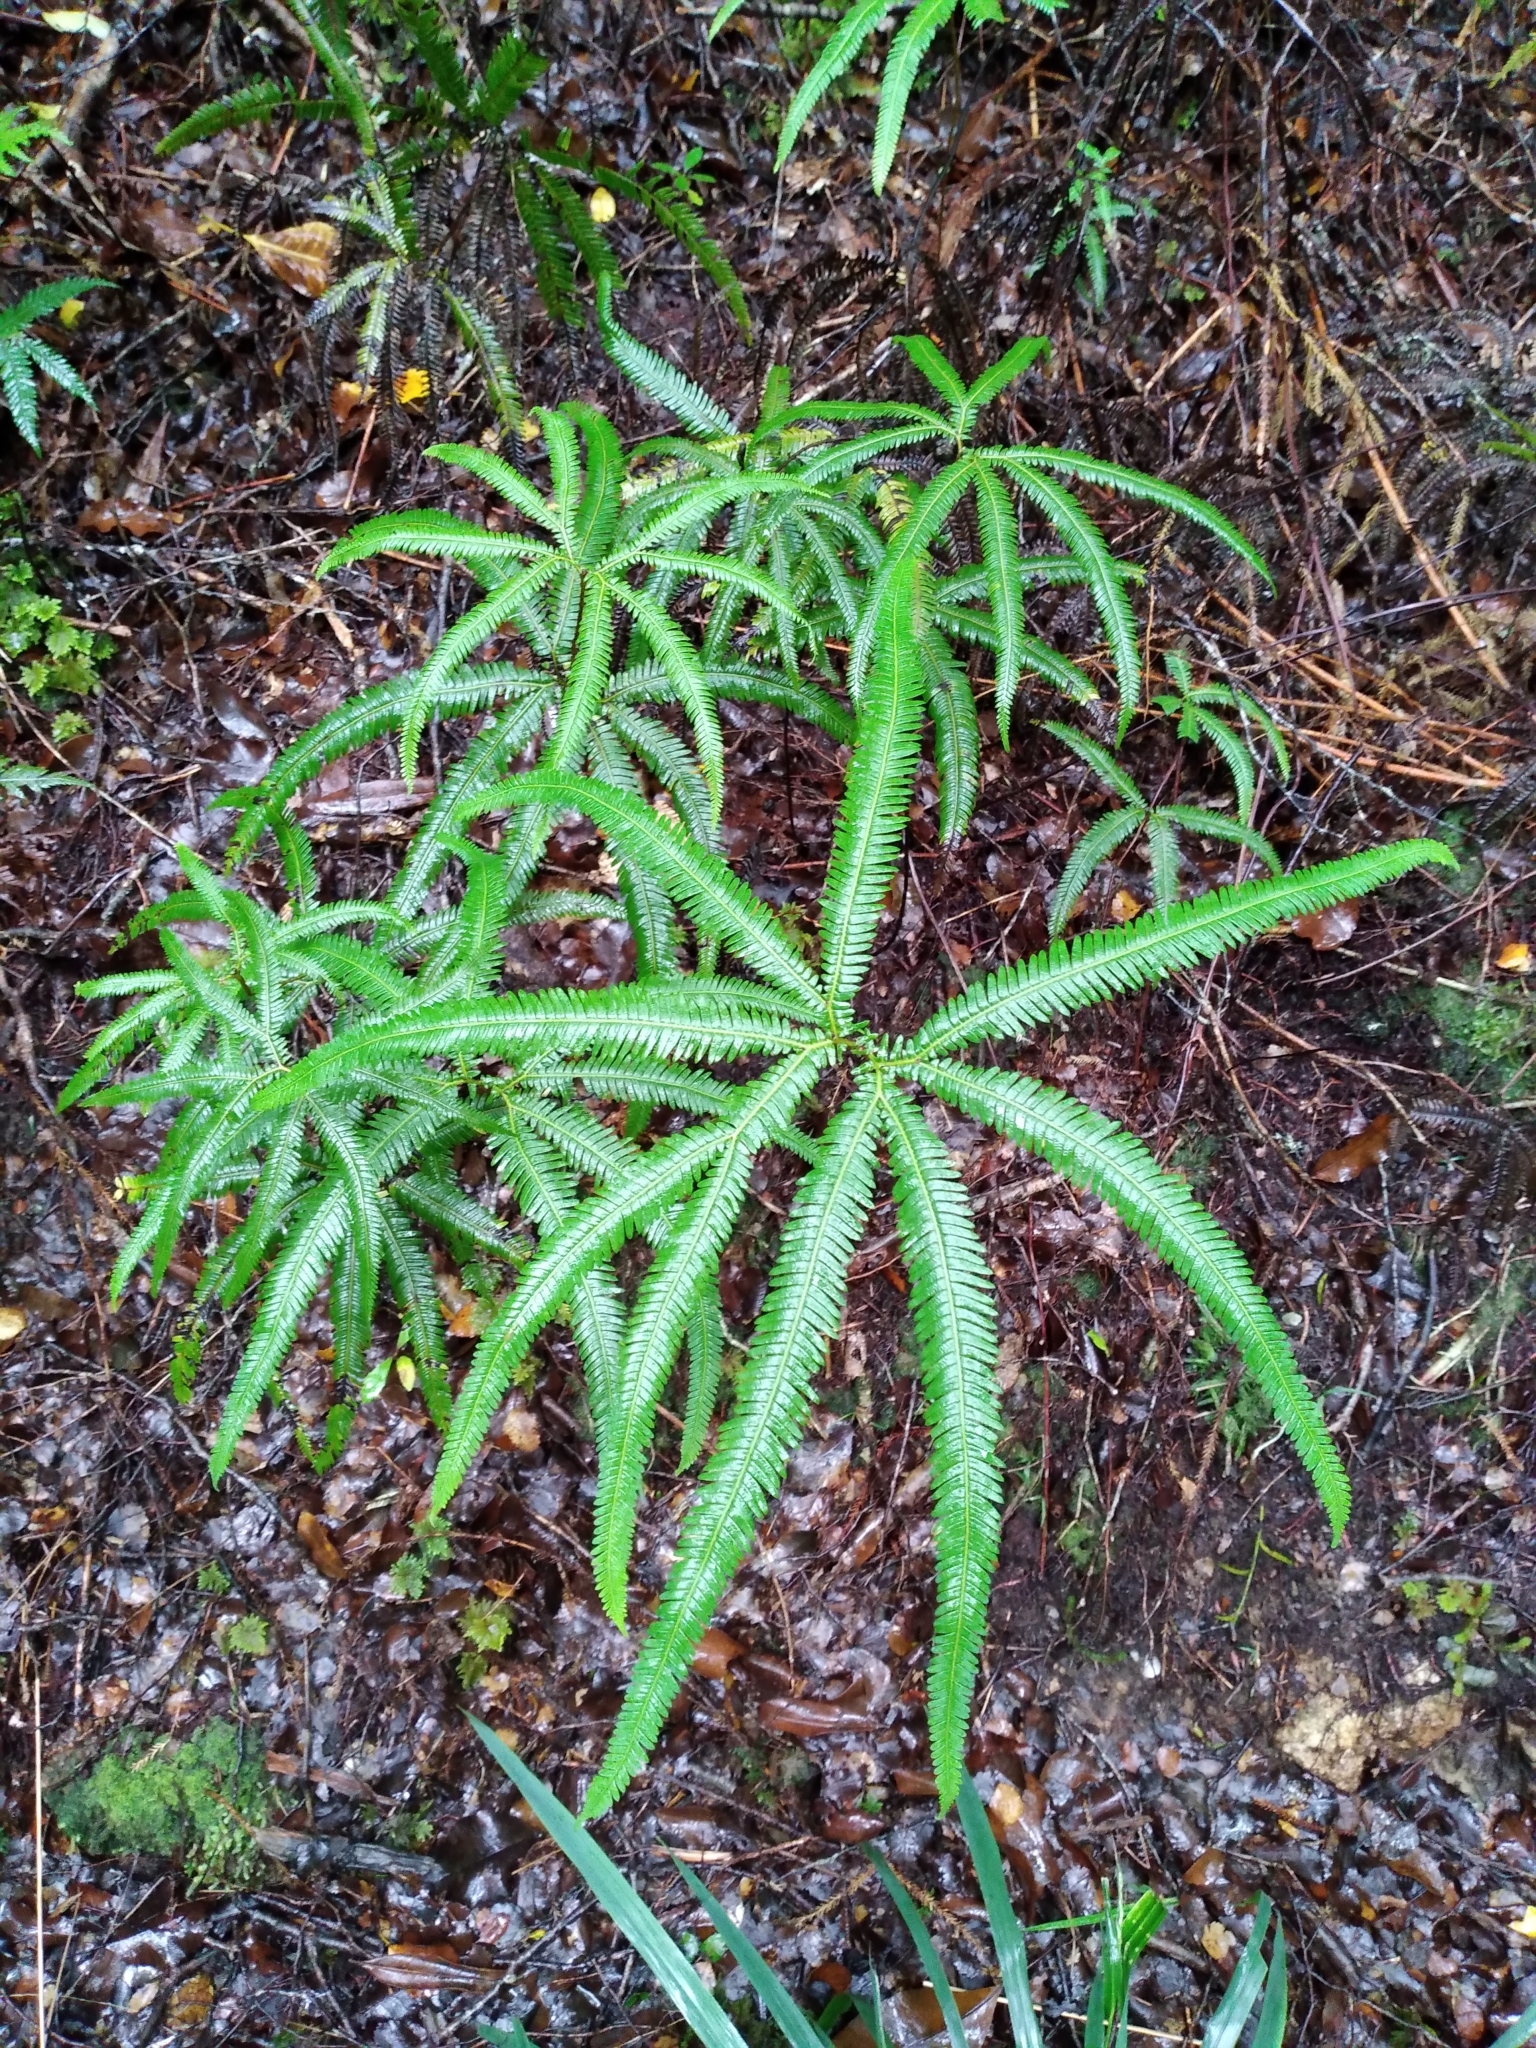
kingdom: Plantae
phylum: Tracheophyta
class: Polypodiopsida
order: Gleicheniales
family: Gleicheniaceae
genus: Sticherus
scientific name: Sticherus cunninghamii
